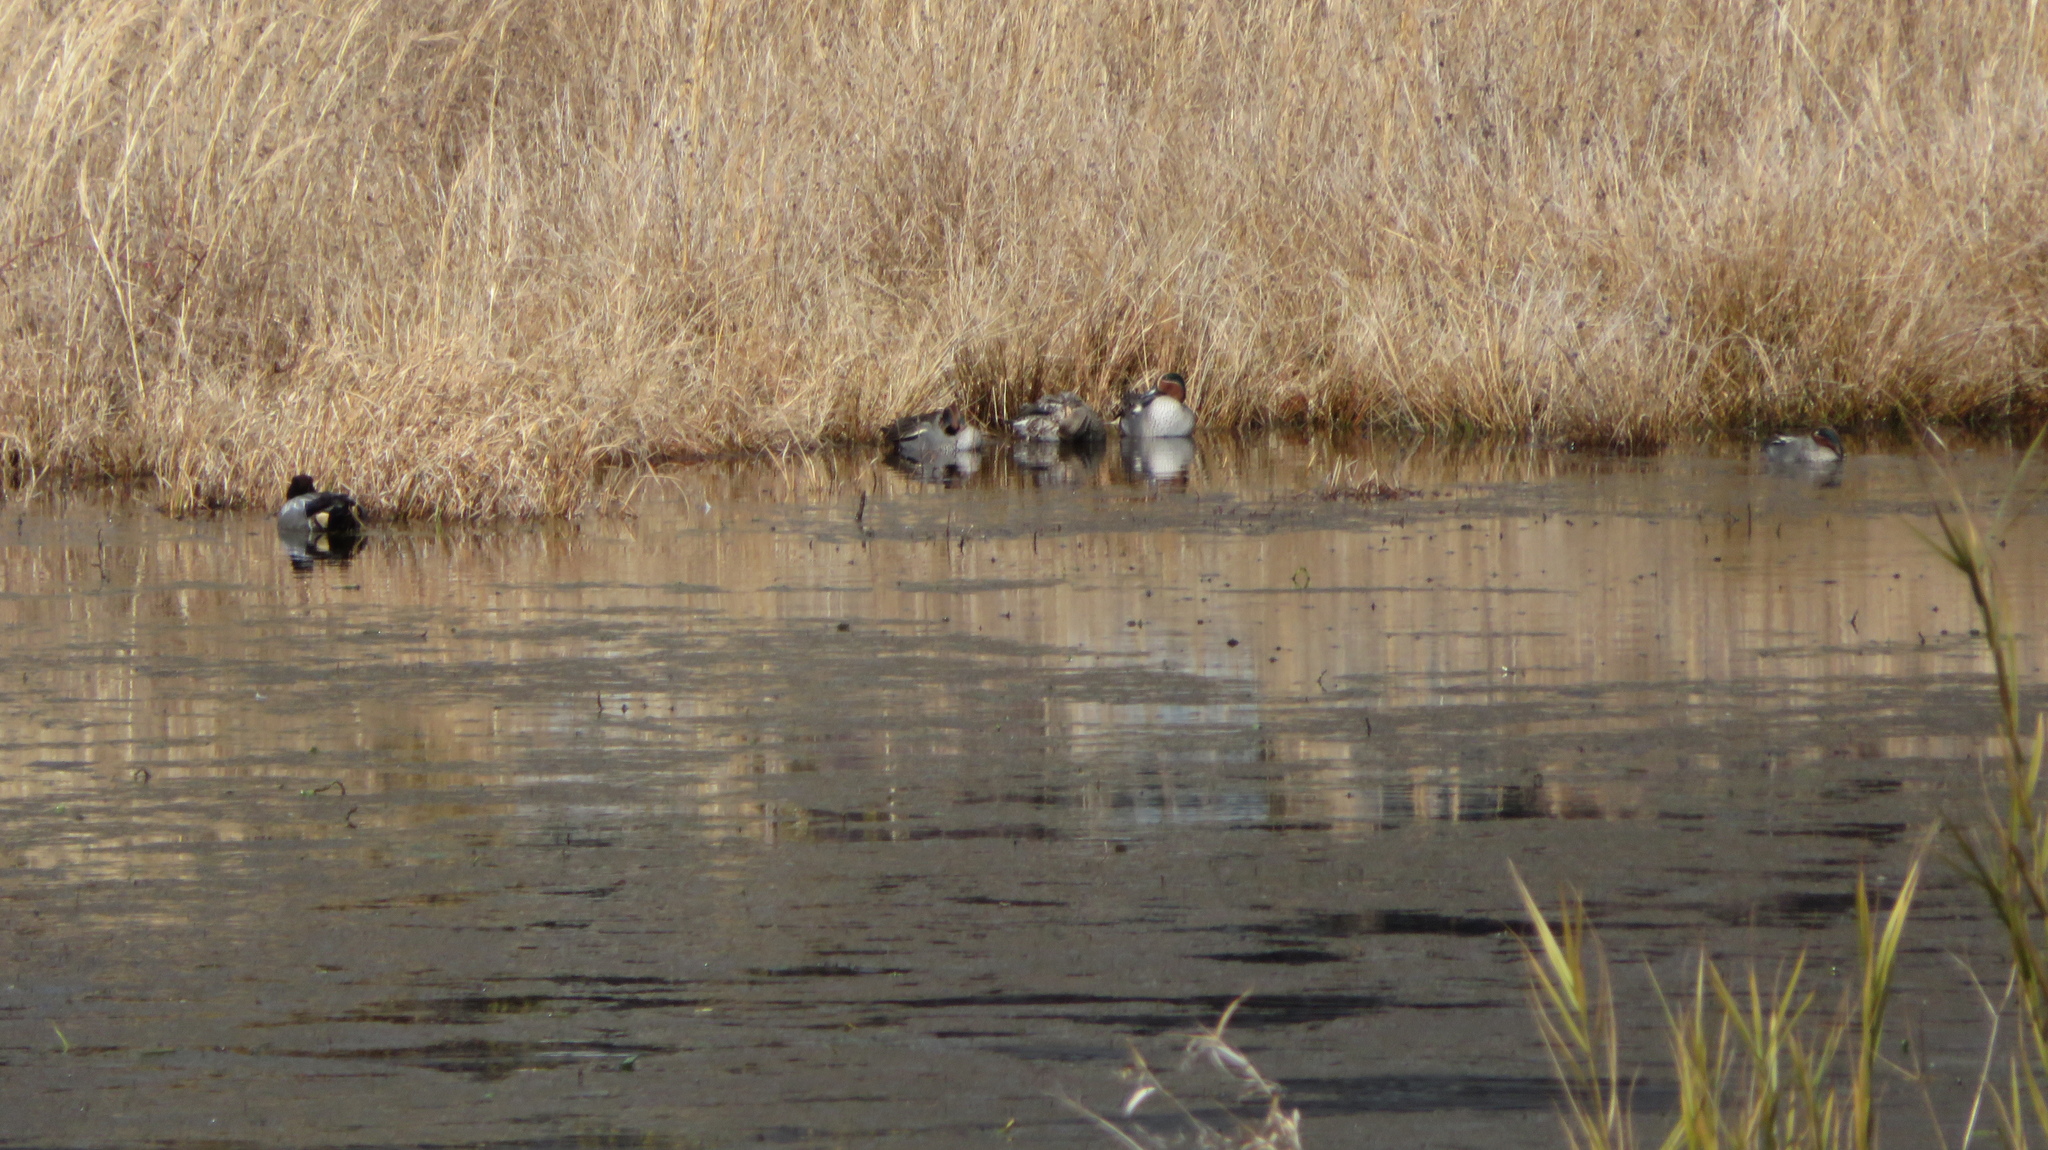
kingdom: Animalia
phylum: Chordata
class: Aves
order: Anseriformes
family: Anatidae
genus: Anas
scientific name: Anas crecca
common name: Eurasian teal
